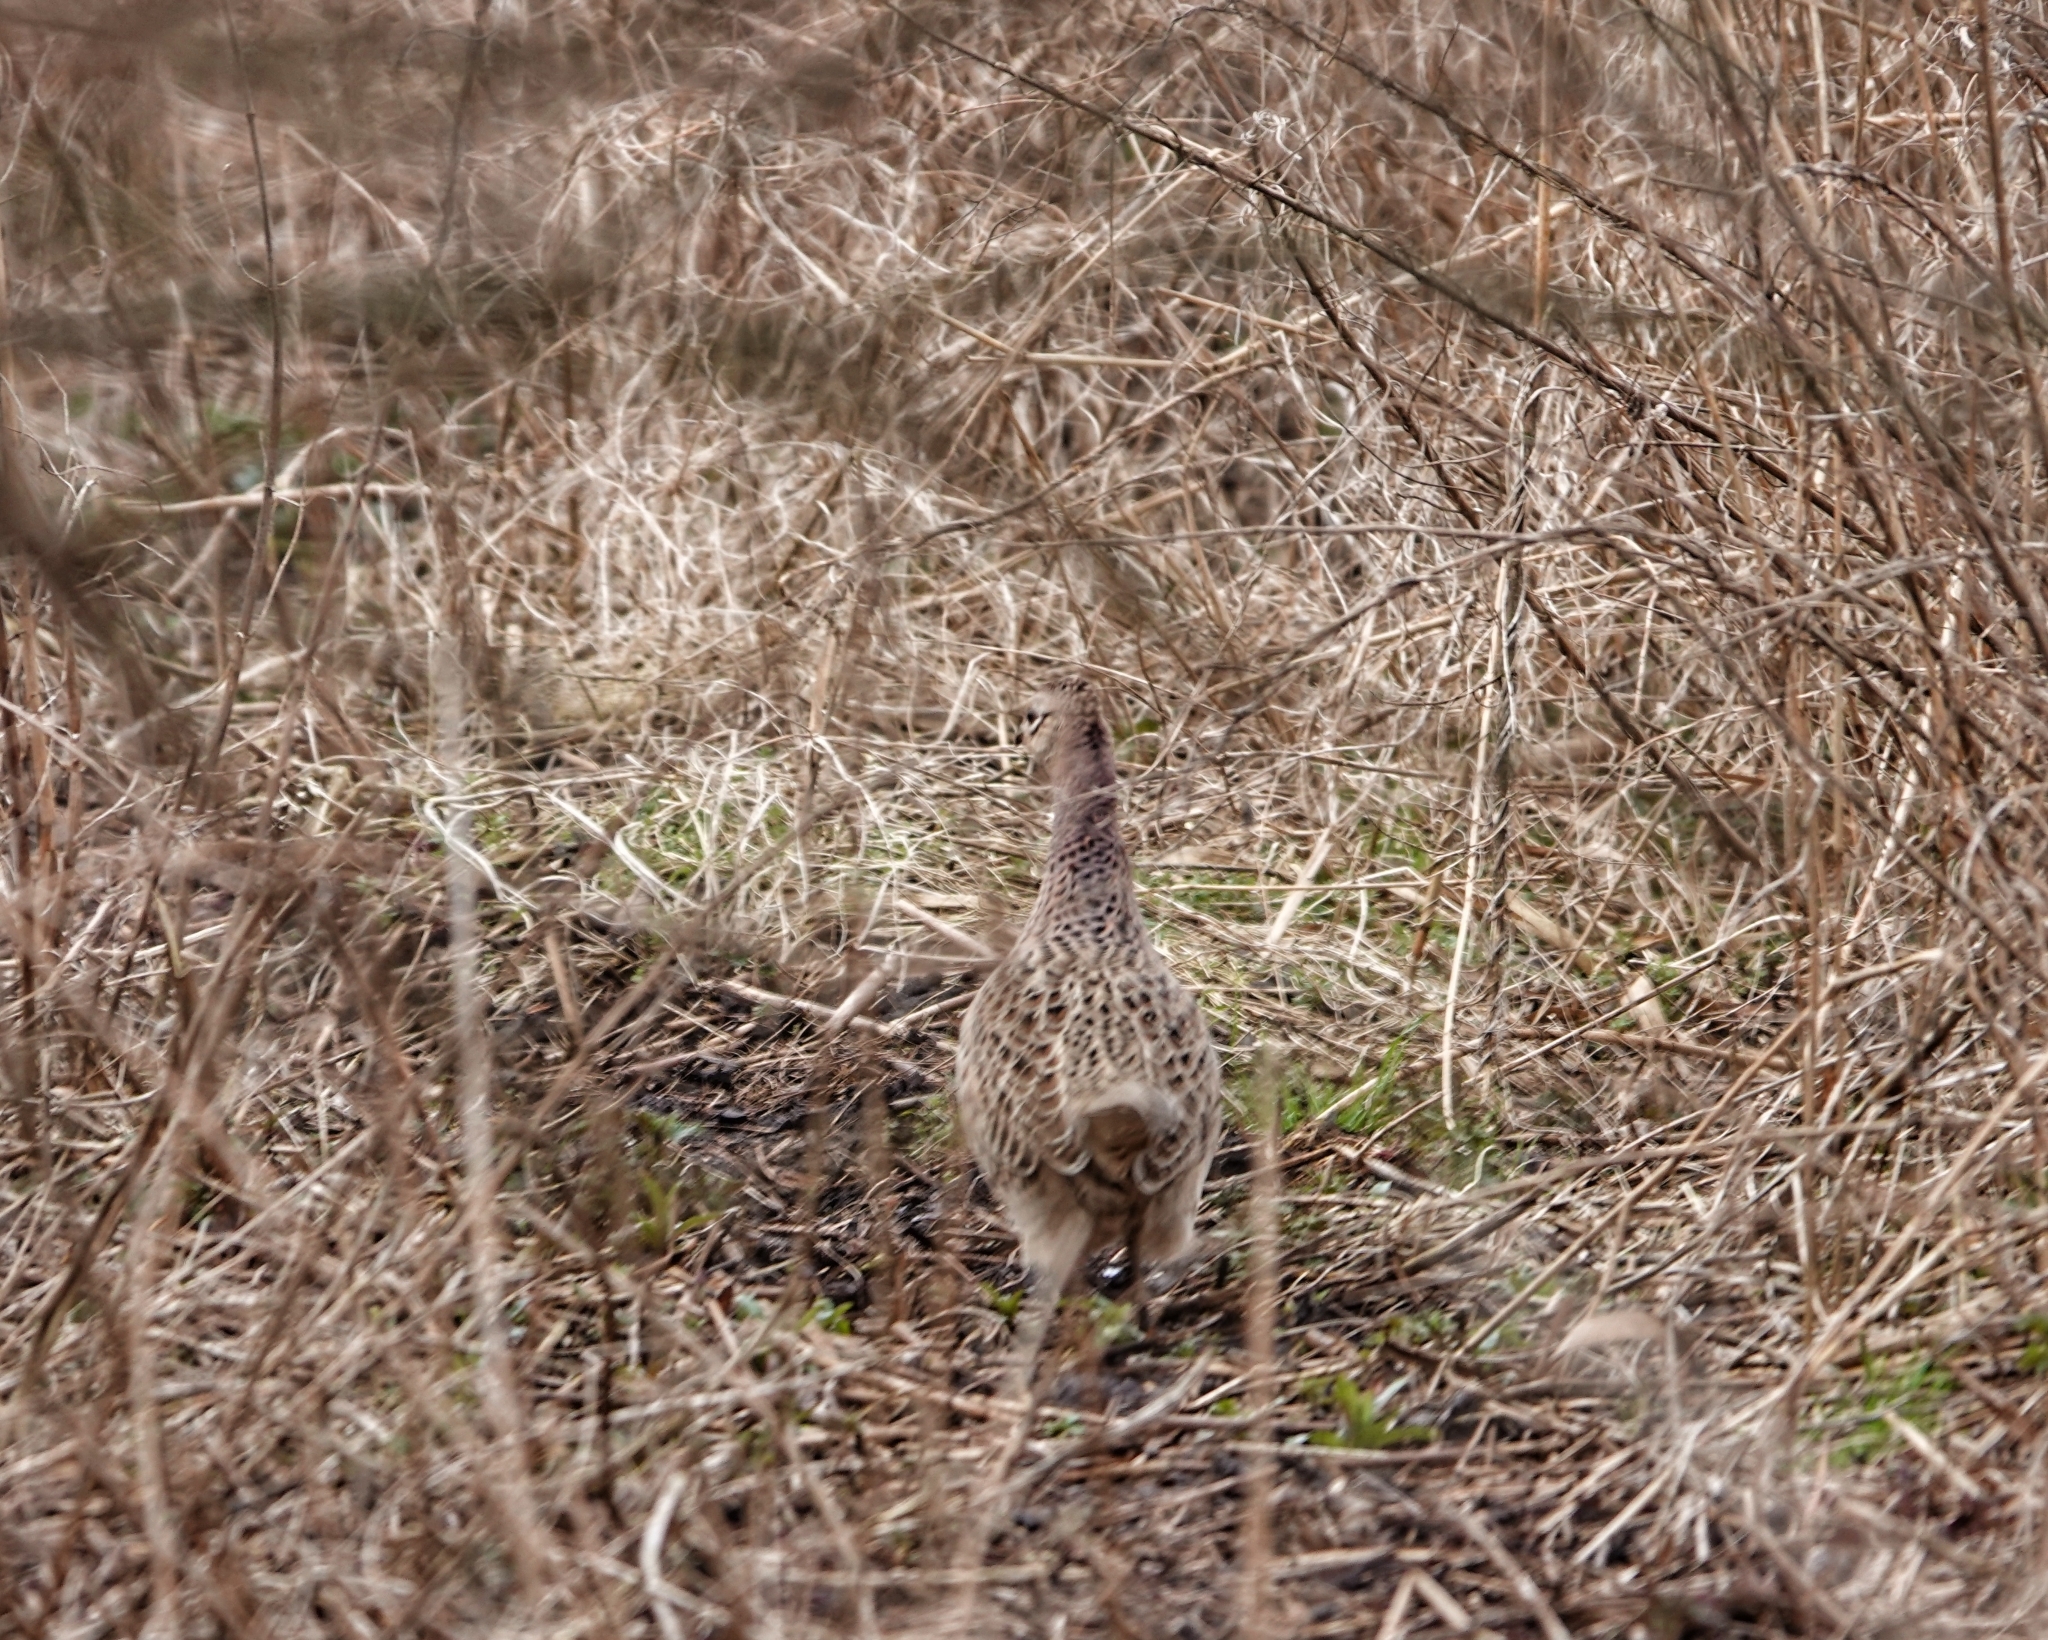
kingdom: Animalia
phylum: Chordata
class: Aves
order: Galliformes
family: Phasianidae
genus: Phasianus
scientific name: Phasianus colchicus
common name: Common pheasant
